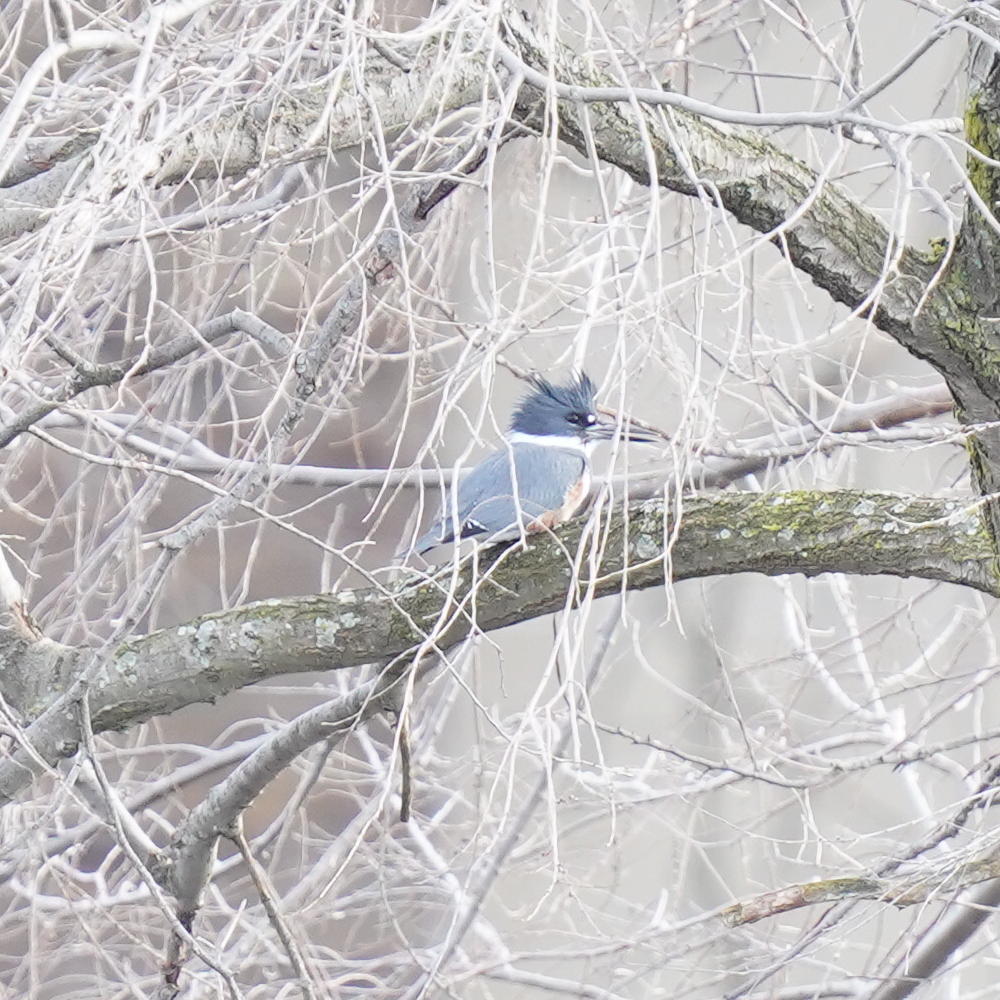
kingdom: Animalia
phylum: Chordata
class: Aves
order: Coraciiformes
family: Alcedinidae
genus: Megaceryle
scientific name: Megaceryle alcyon
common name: Belted kingfisher
